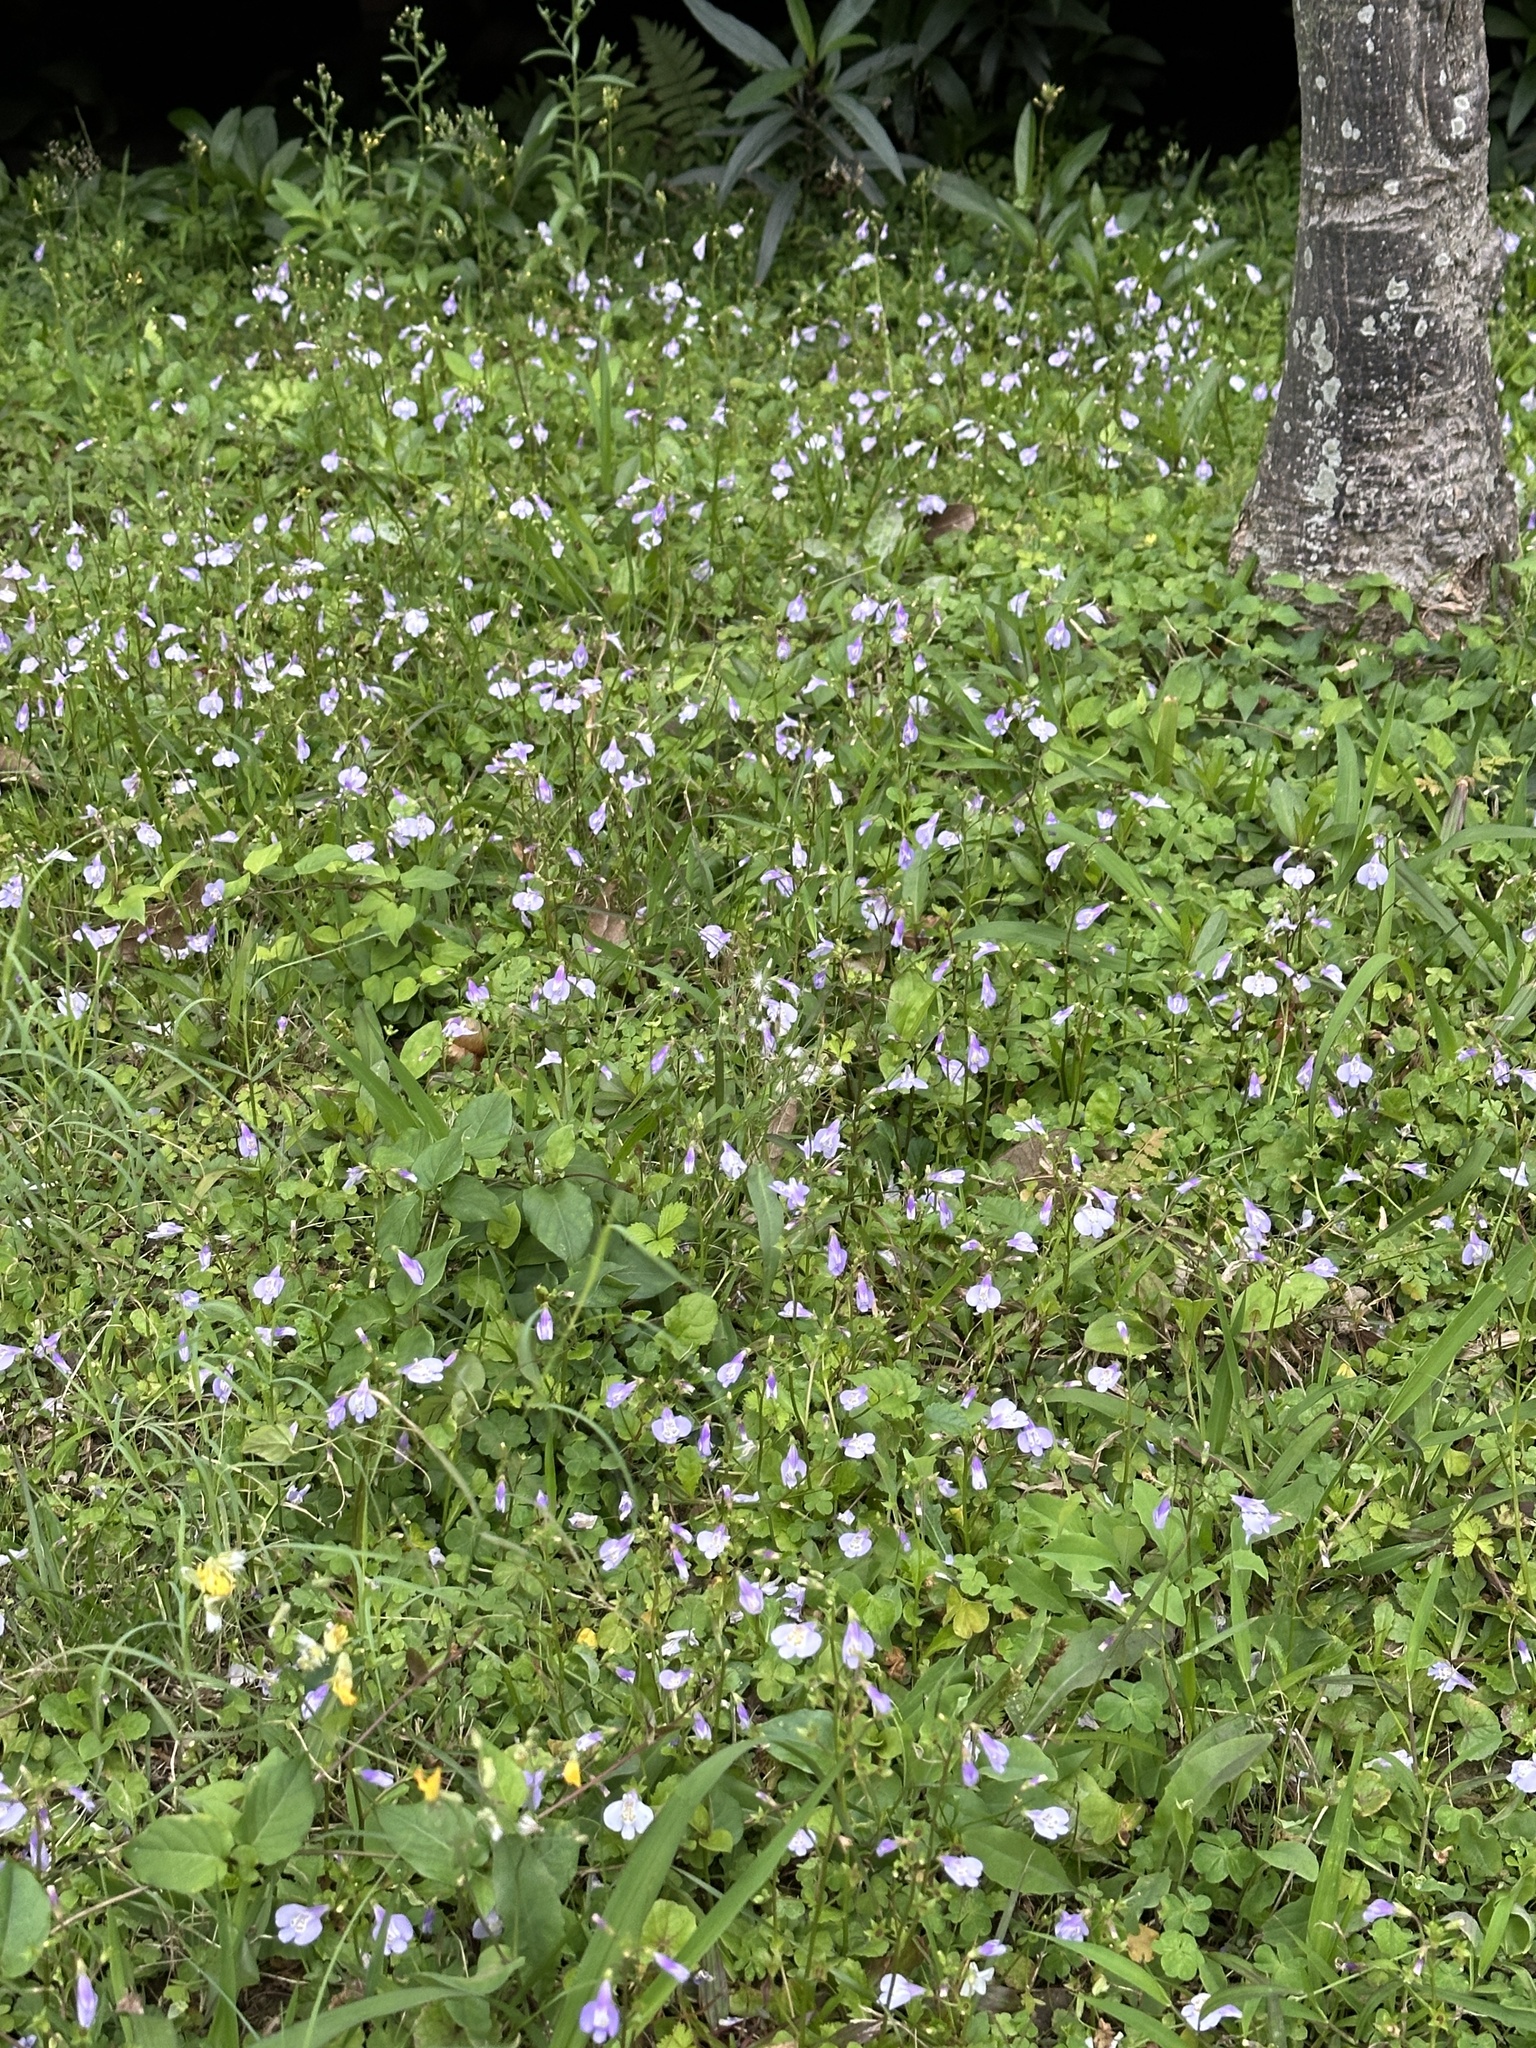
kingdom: Plantae
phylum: Tracheophyta
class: Magnoliopsida
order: Lamiales
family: Mazaceae
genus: Mazus
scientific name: Mazus fauriei
